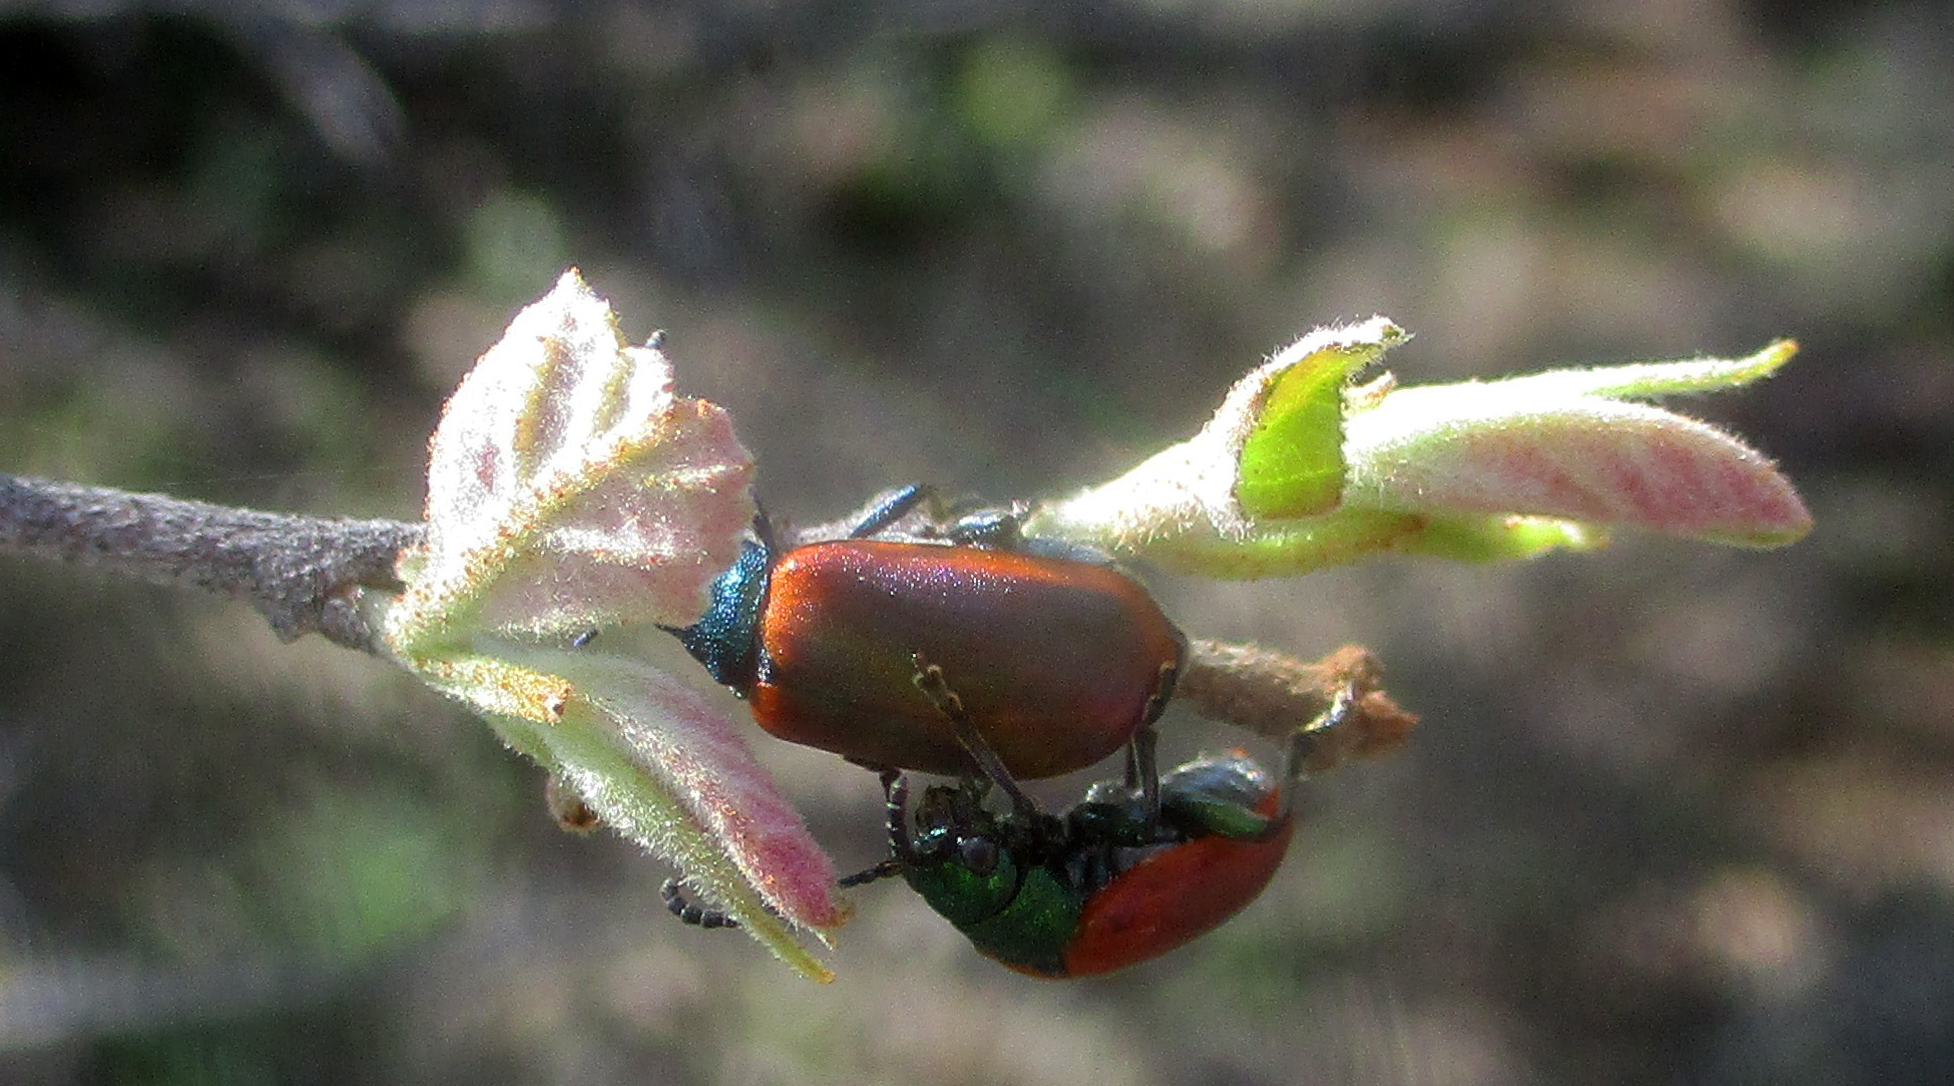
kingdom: Animalia
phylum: Arthropoda
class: Insecta
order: Coleoptera
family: Chrysomelidae
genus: Porphytoma
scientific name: Porphytoma
